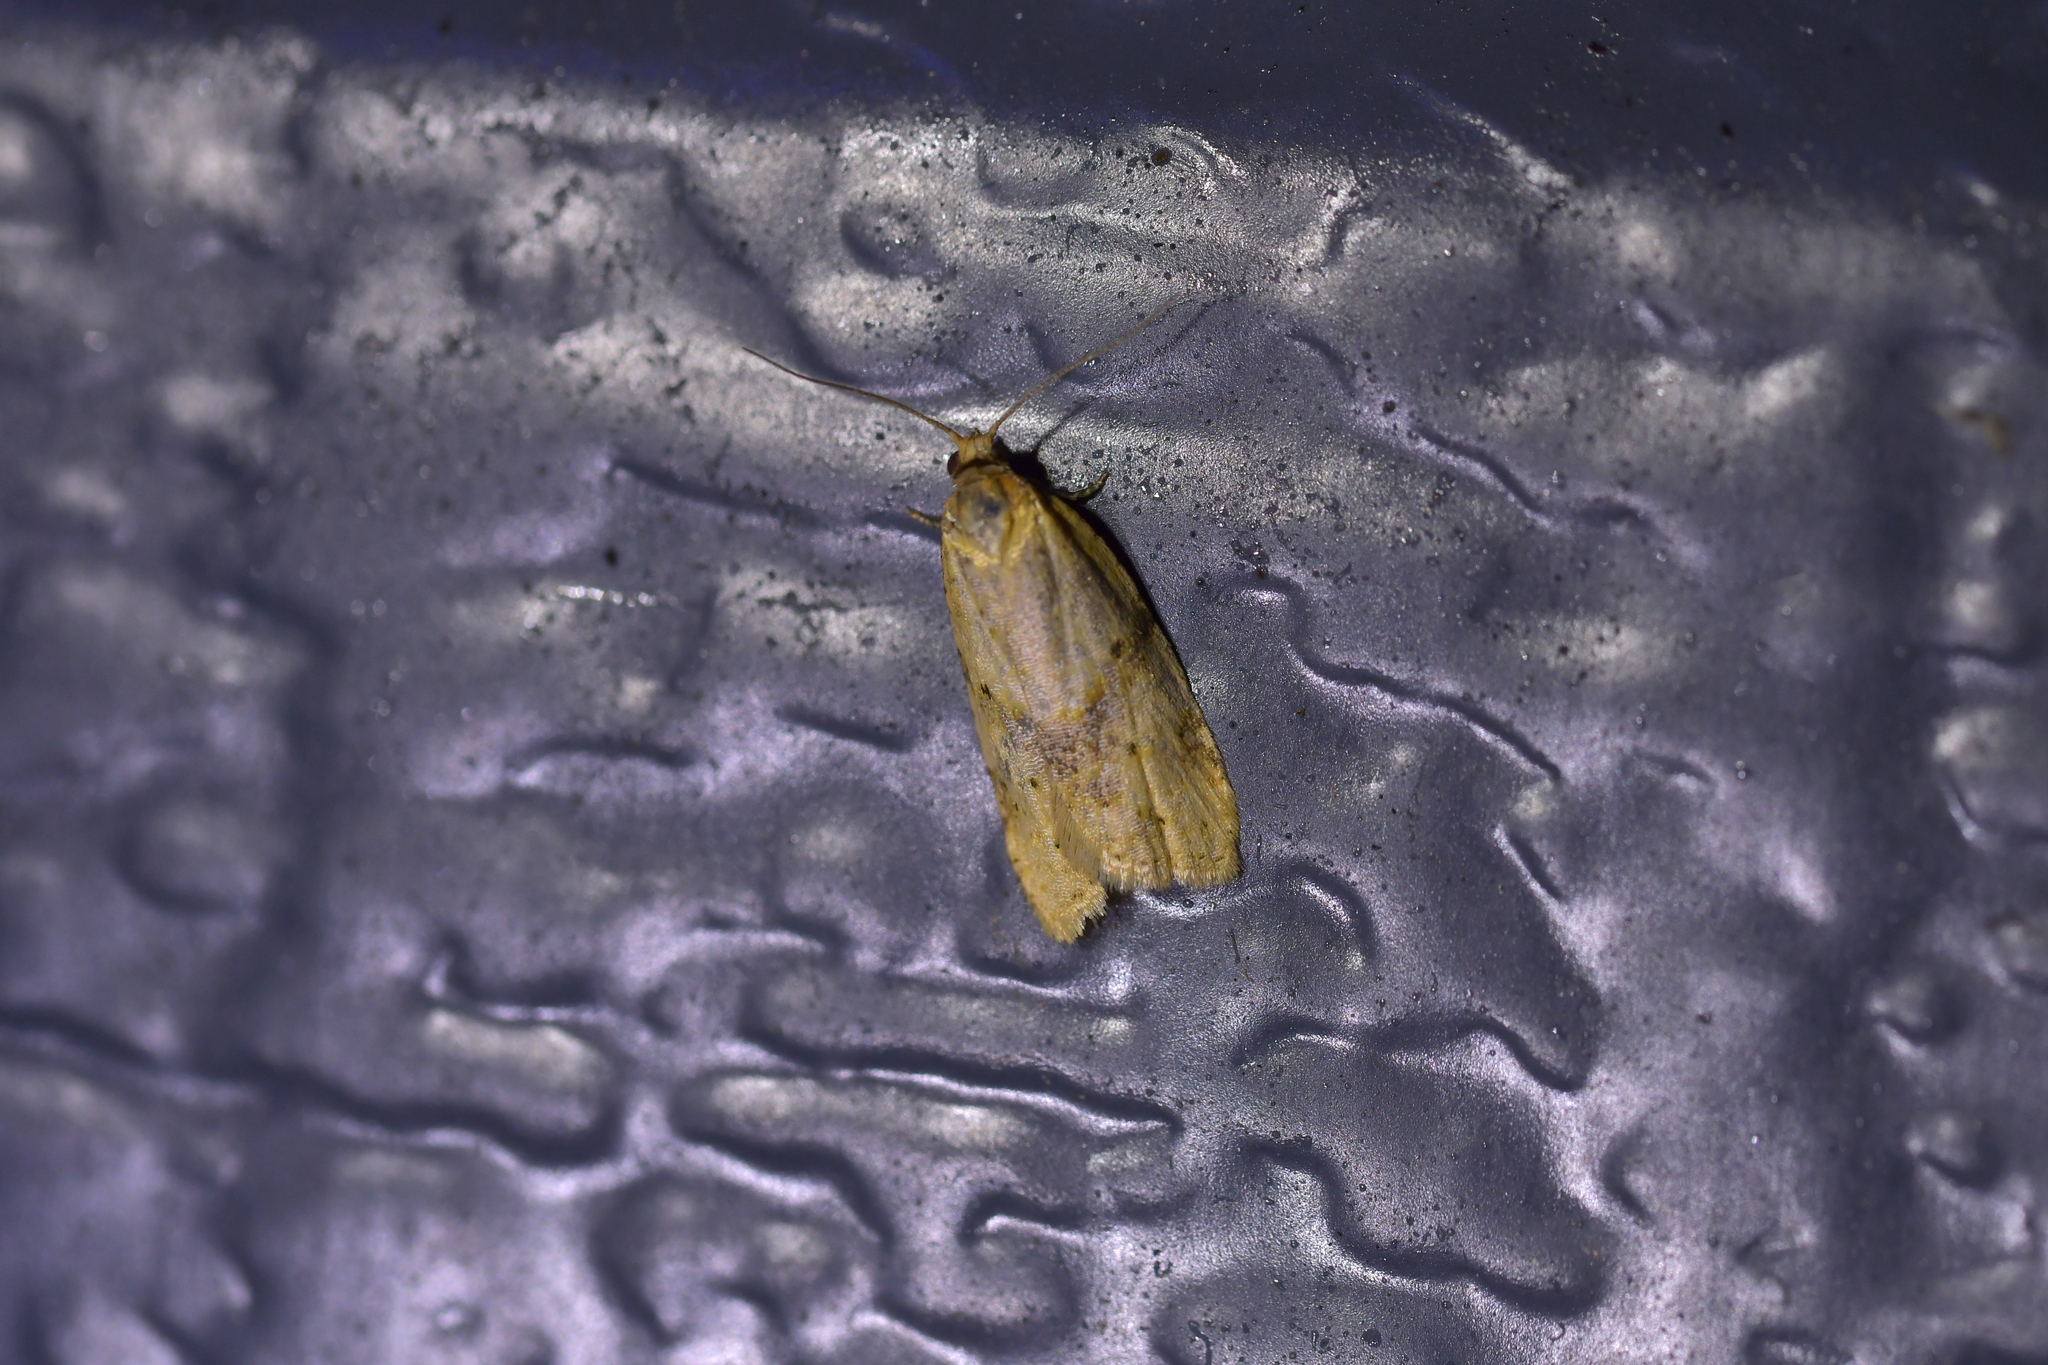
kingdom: Animalia
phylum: Arthropoda
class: Insecta
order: Lepidoptera
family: Tortricidae
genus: Clepsis
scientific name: Clepsis
